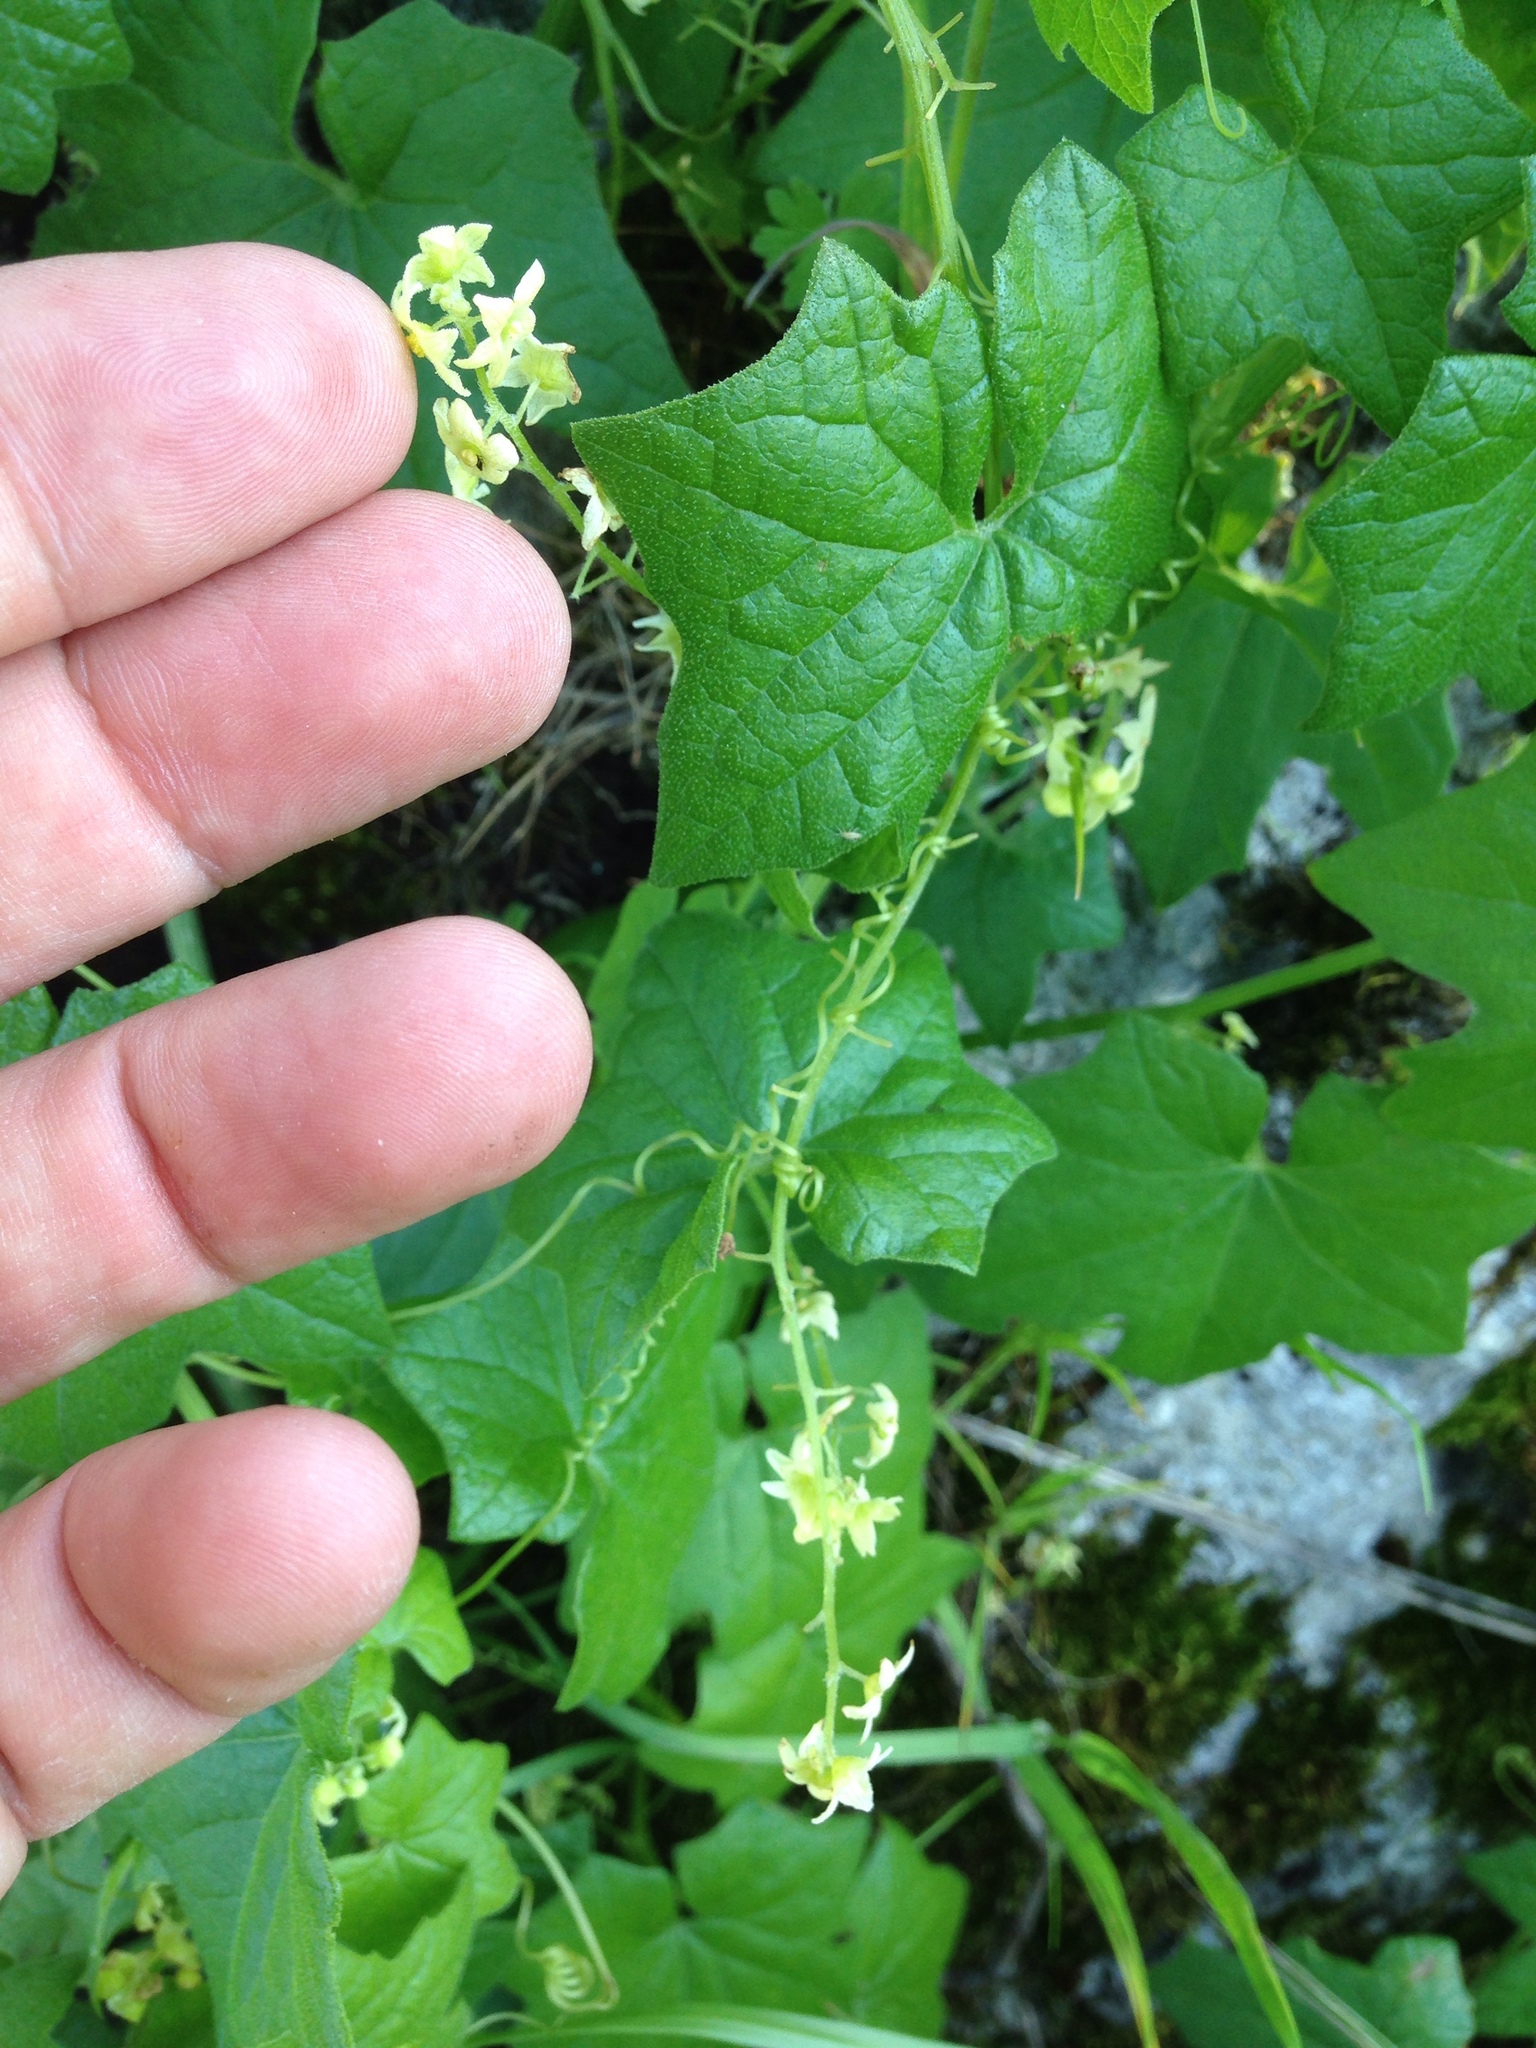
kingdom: Plantae
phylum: Tracheophyta
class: Magnoliopsida
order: Cucurbitales
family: Cucurbitaceae
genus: Marah
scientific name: Marah fabacea
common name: California manroot
